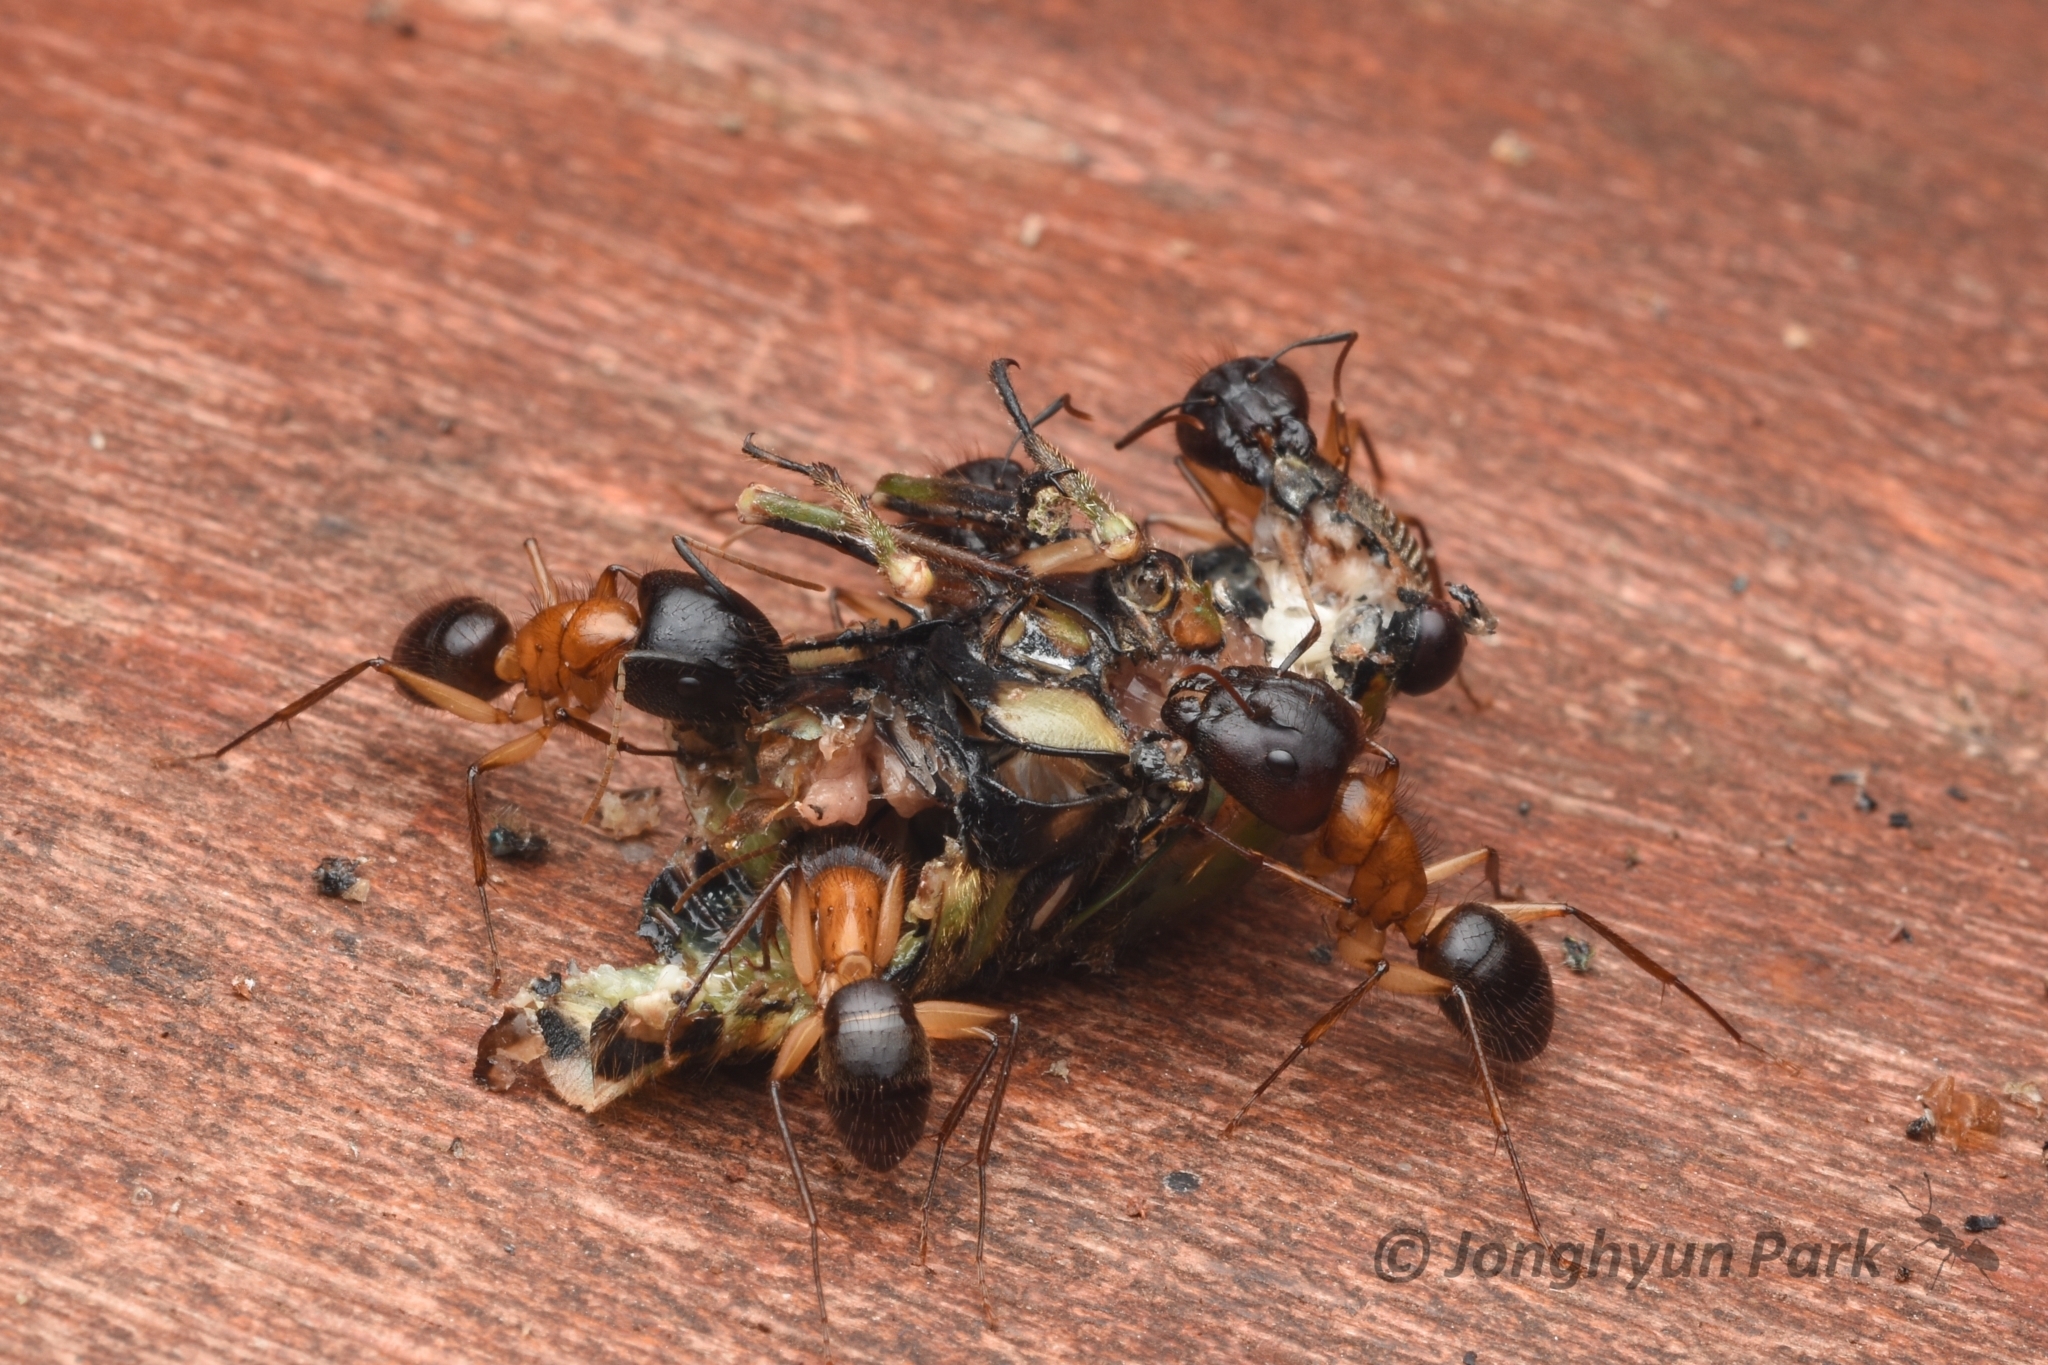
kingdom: Animalia
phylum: Arthropoda
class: Insecta
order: Hymenoptera
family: Formicidae
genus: Camponotus
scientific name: Camponotus atriceps
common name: Florida carpenter ant
